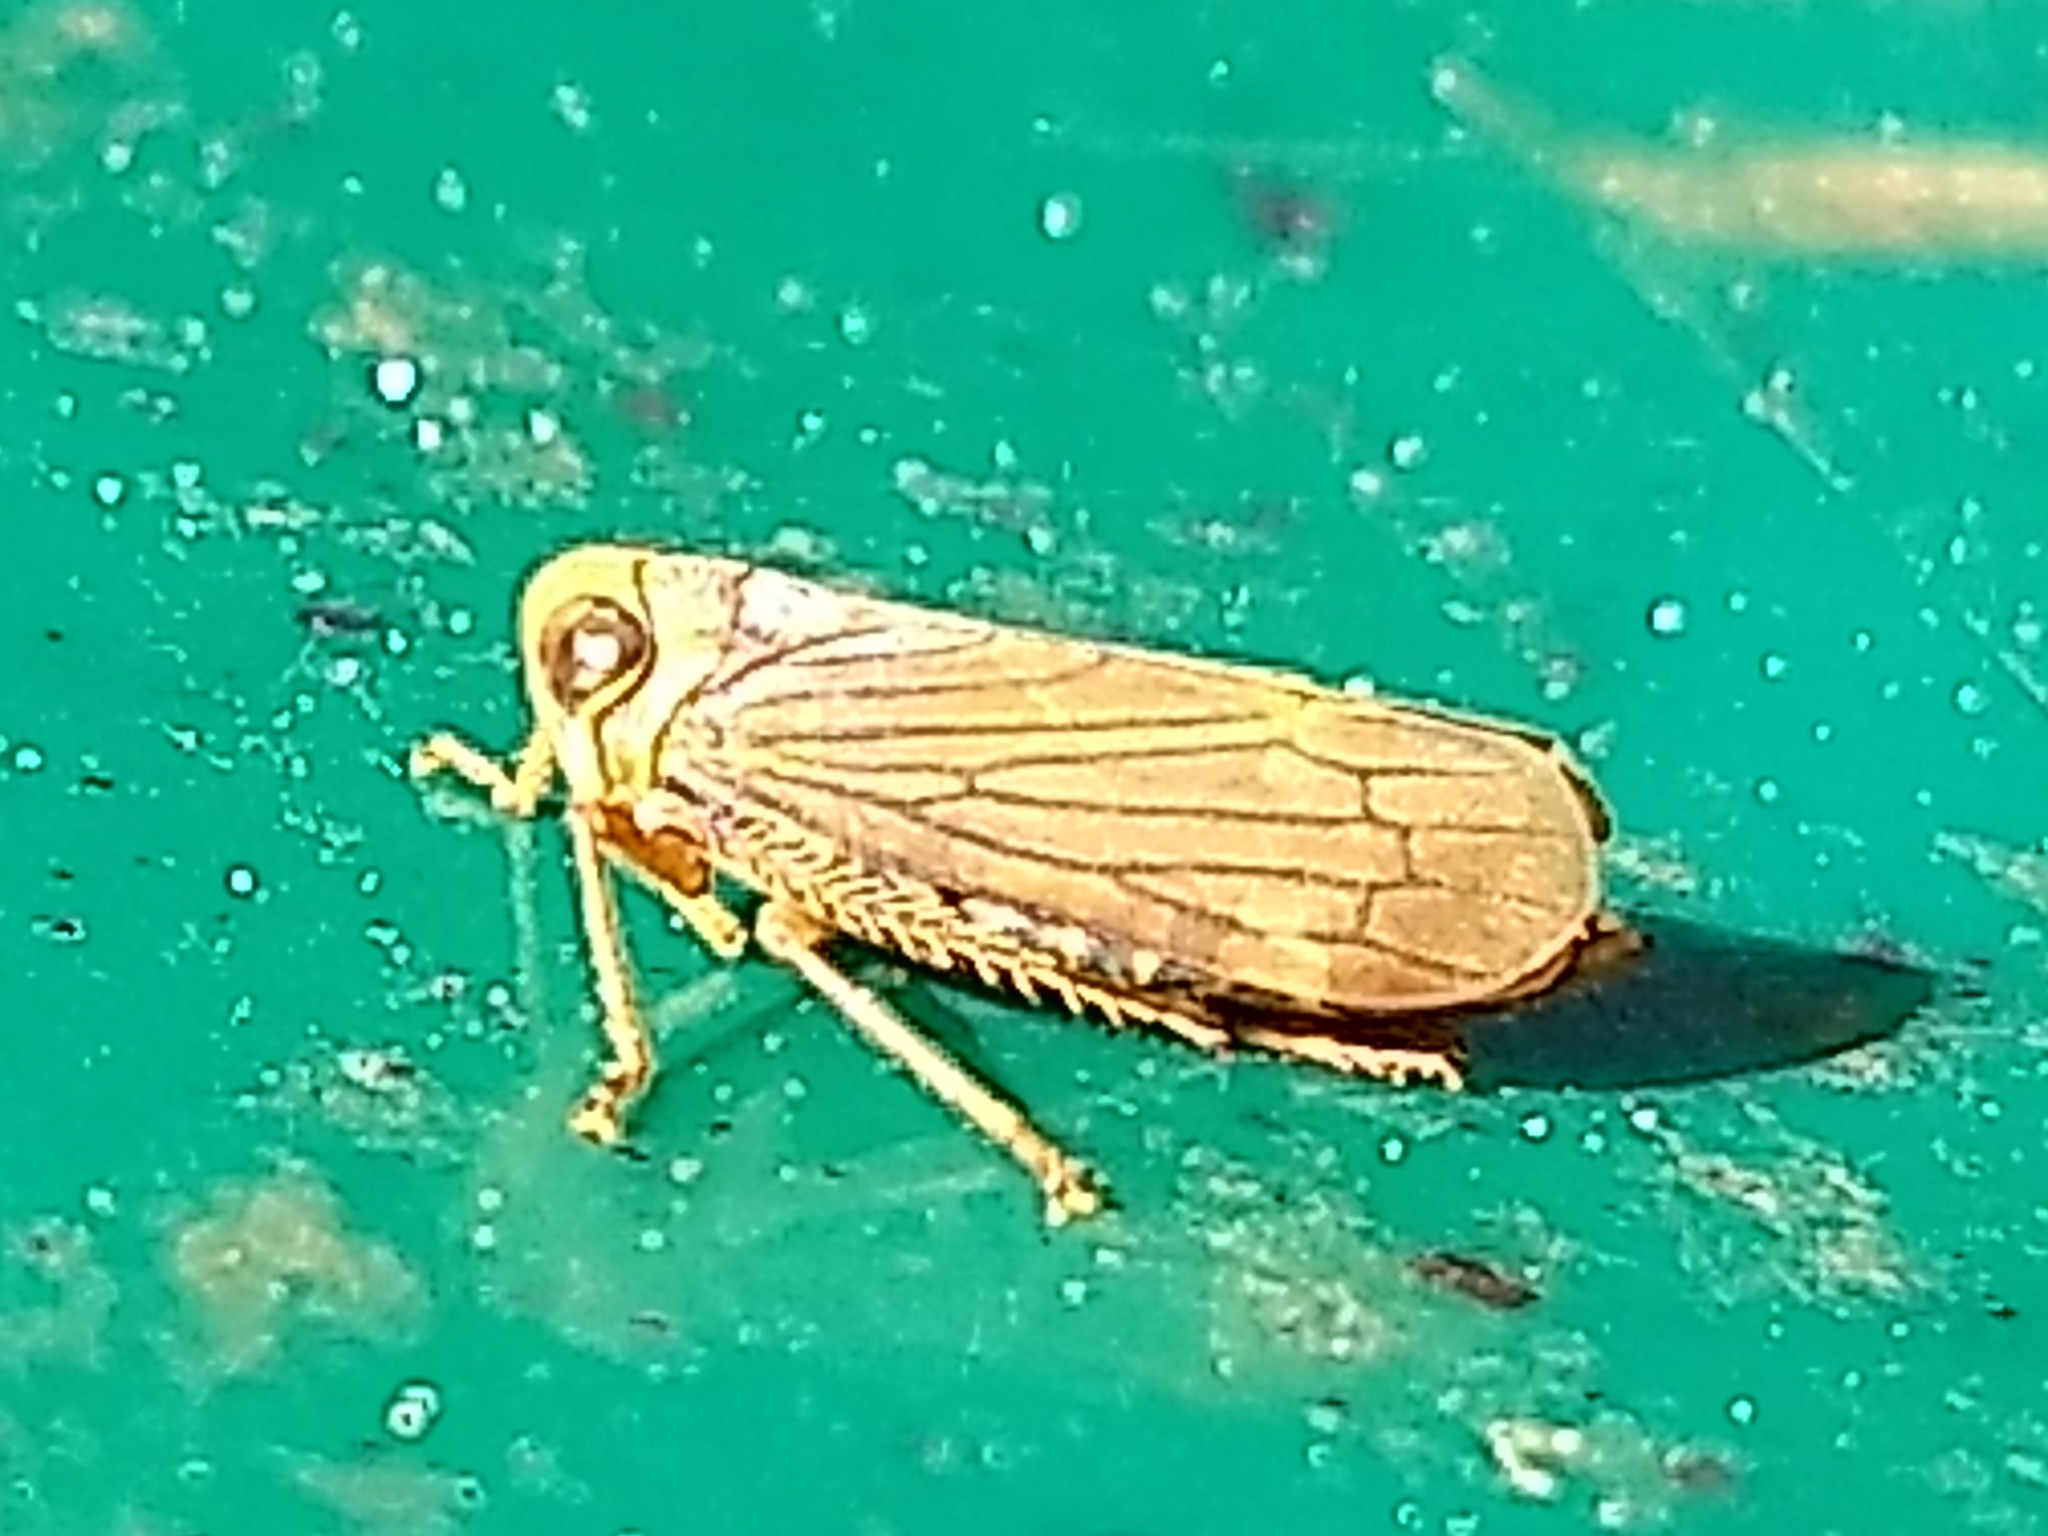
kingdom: Animalia
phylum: Arthropoda
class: Insecta
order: Hemiptera
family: Cicadellidae
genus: Jikradia
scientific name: Jikradia olitoria
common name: Coppery leafhopper
